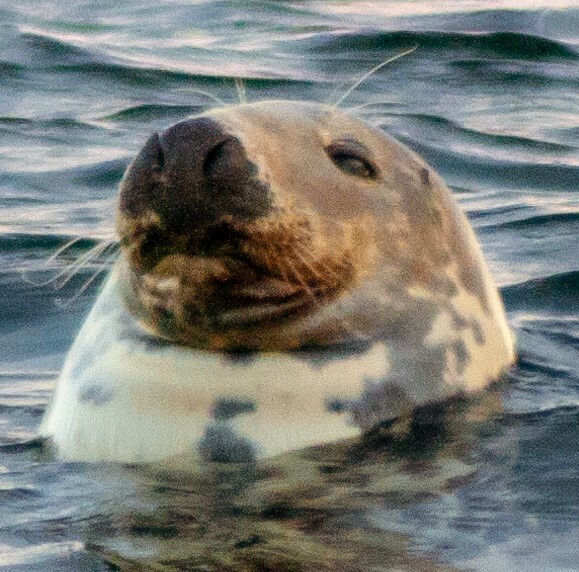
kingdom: Animalia
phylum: Chordata
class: Mammalia
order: Carnivora
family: Phocidae
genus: Halichoerus
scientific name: Halichoerus grypus
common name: Grey seal
